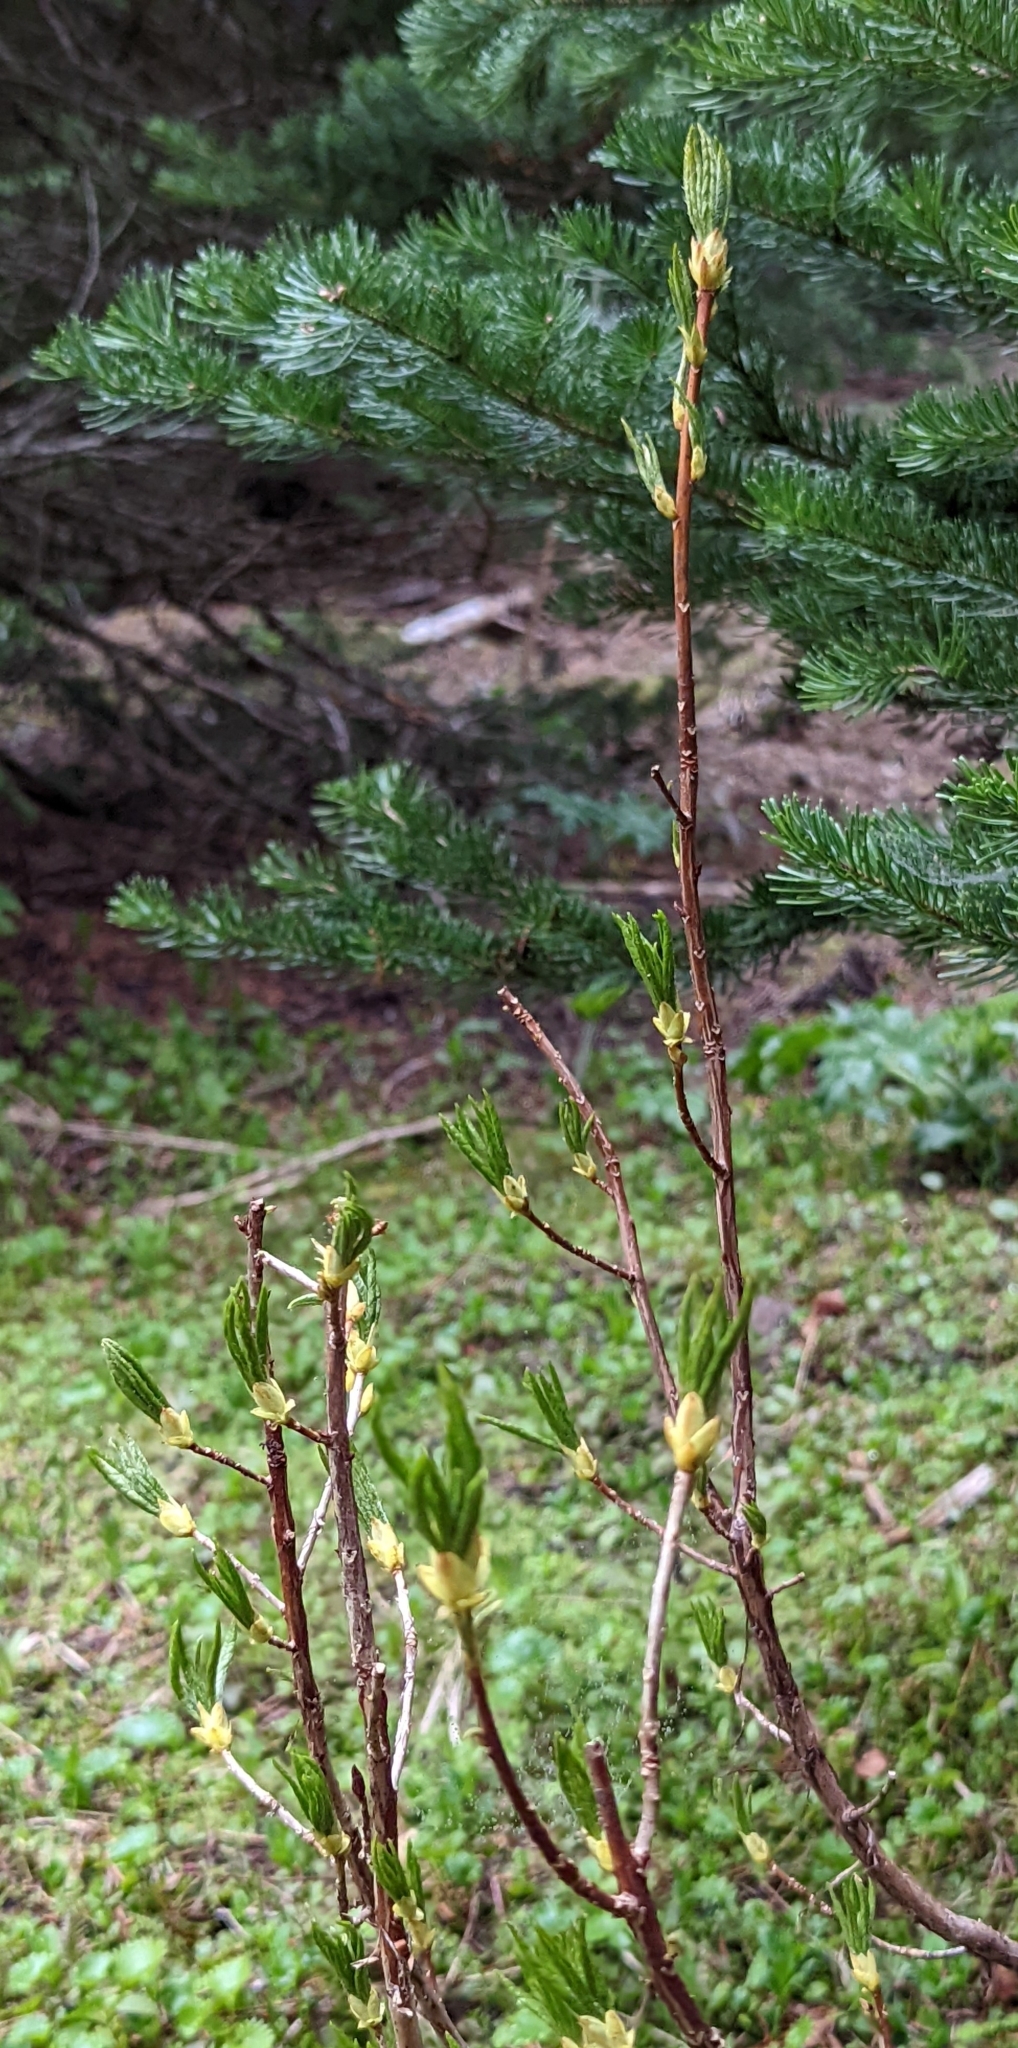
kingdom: Plantae
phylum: Tracheophyta
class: Magnoliopsida
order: Ericales
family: Ericaceae
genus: Rhododendron
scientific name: Rhododendron albiflorum
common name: White rhododendron
